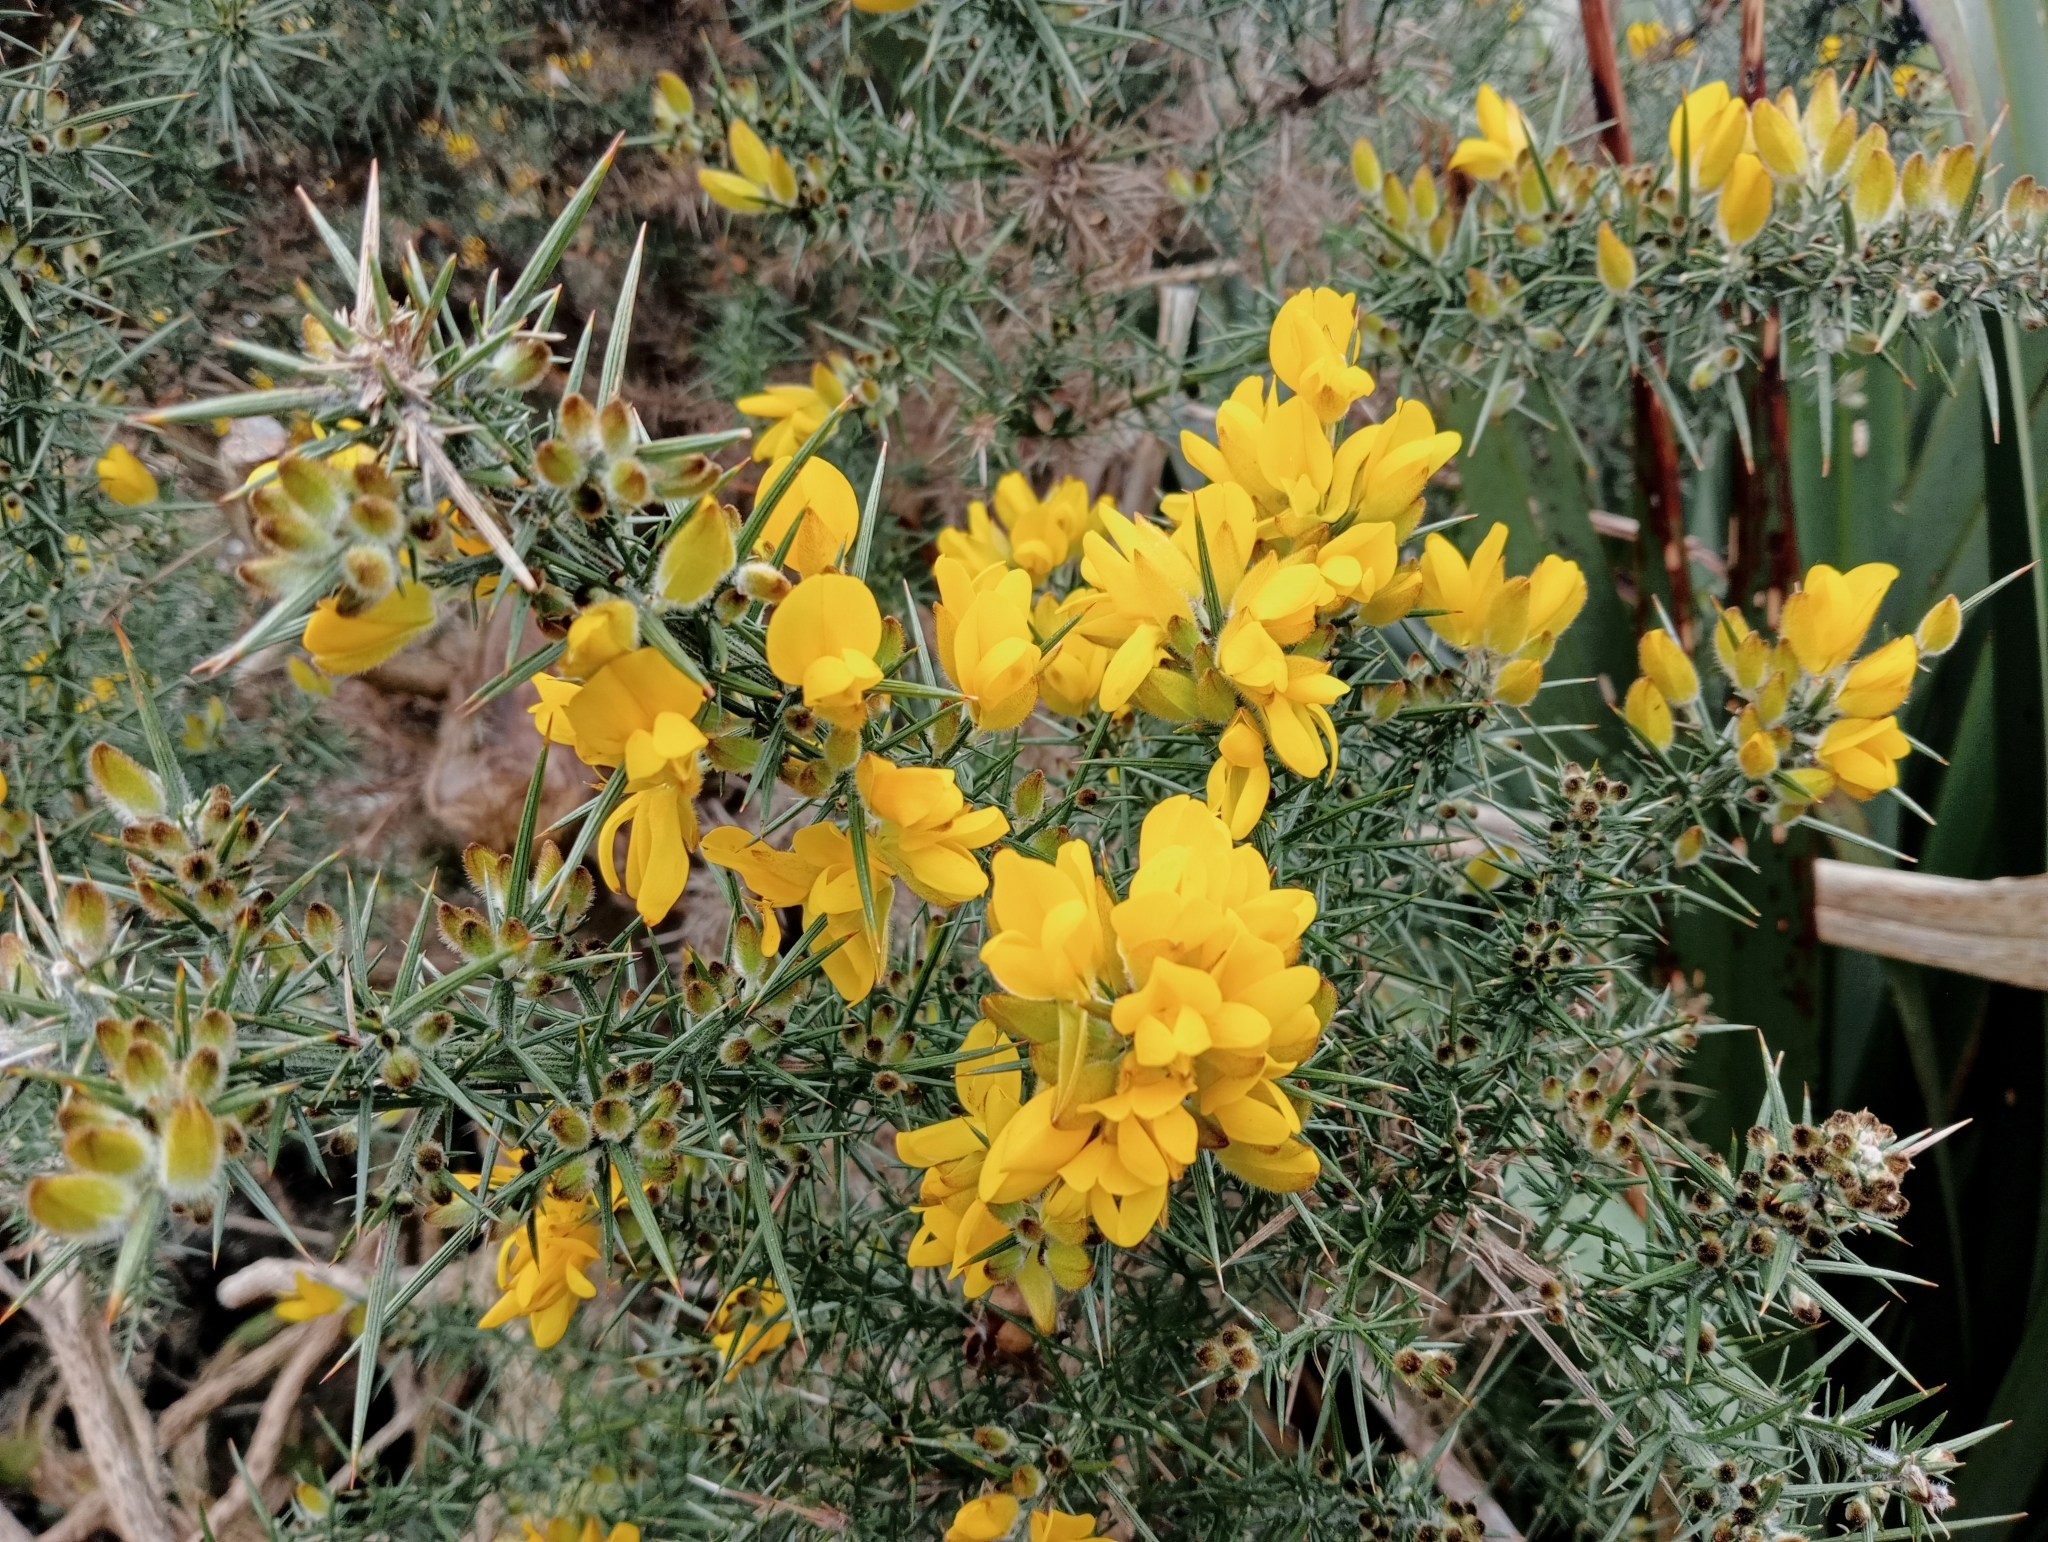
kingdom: Plantae
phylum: Tracheophyta
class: Magnoliopsida
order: Fabales
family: Fabaceae
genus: Ulex
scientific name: Ulex europaeus
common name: Common gorse
